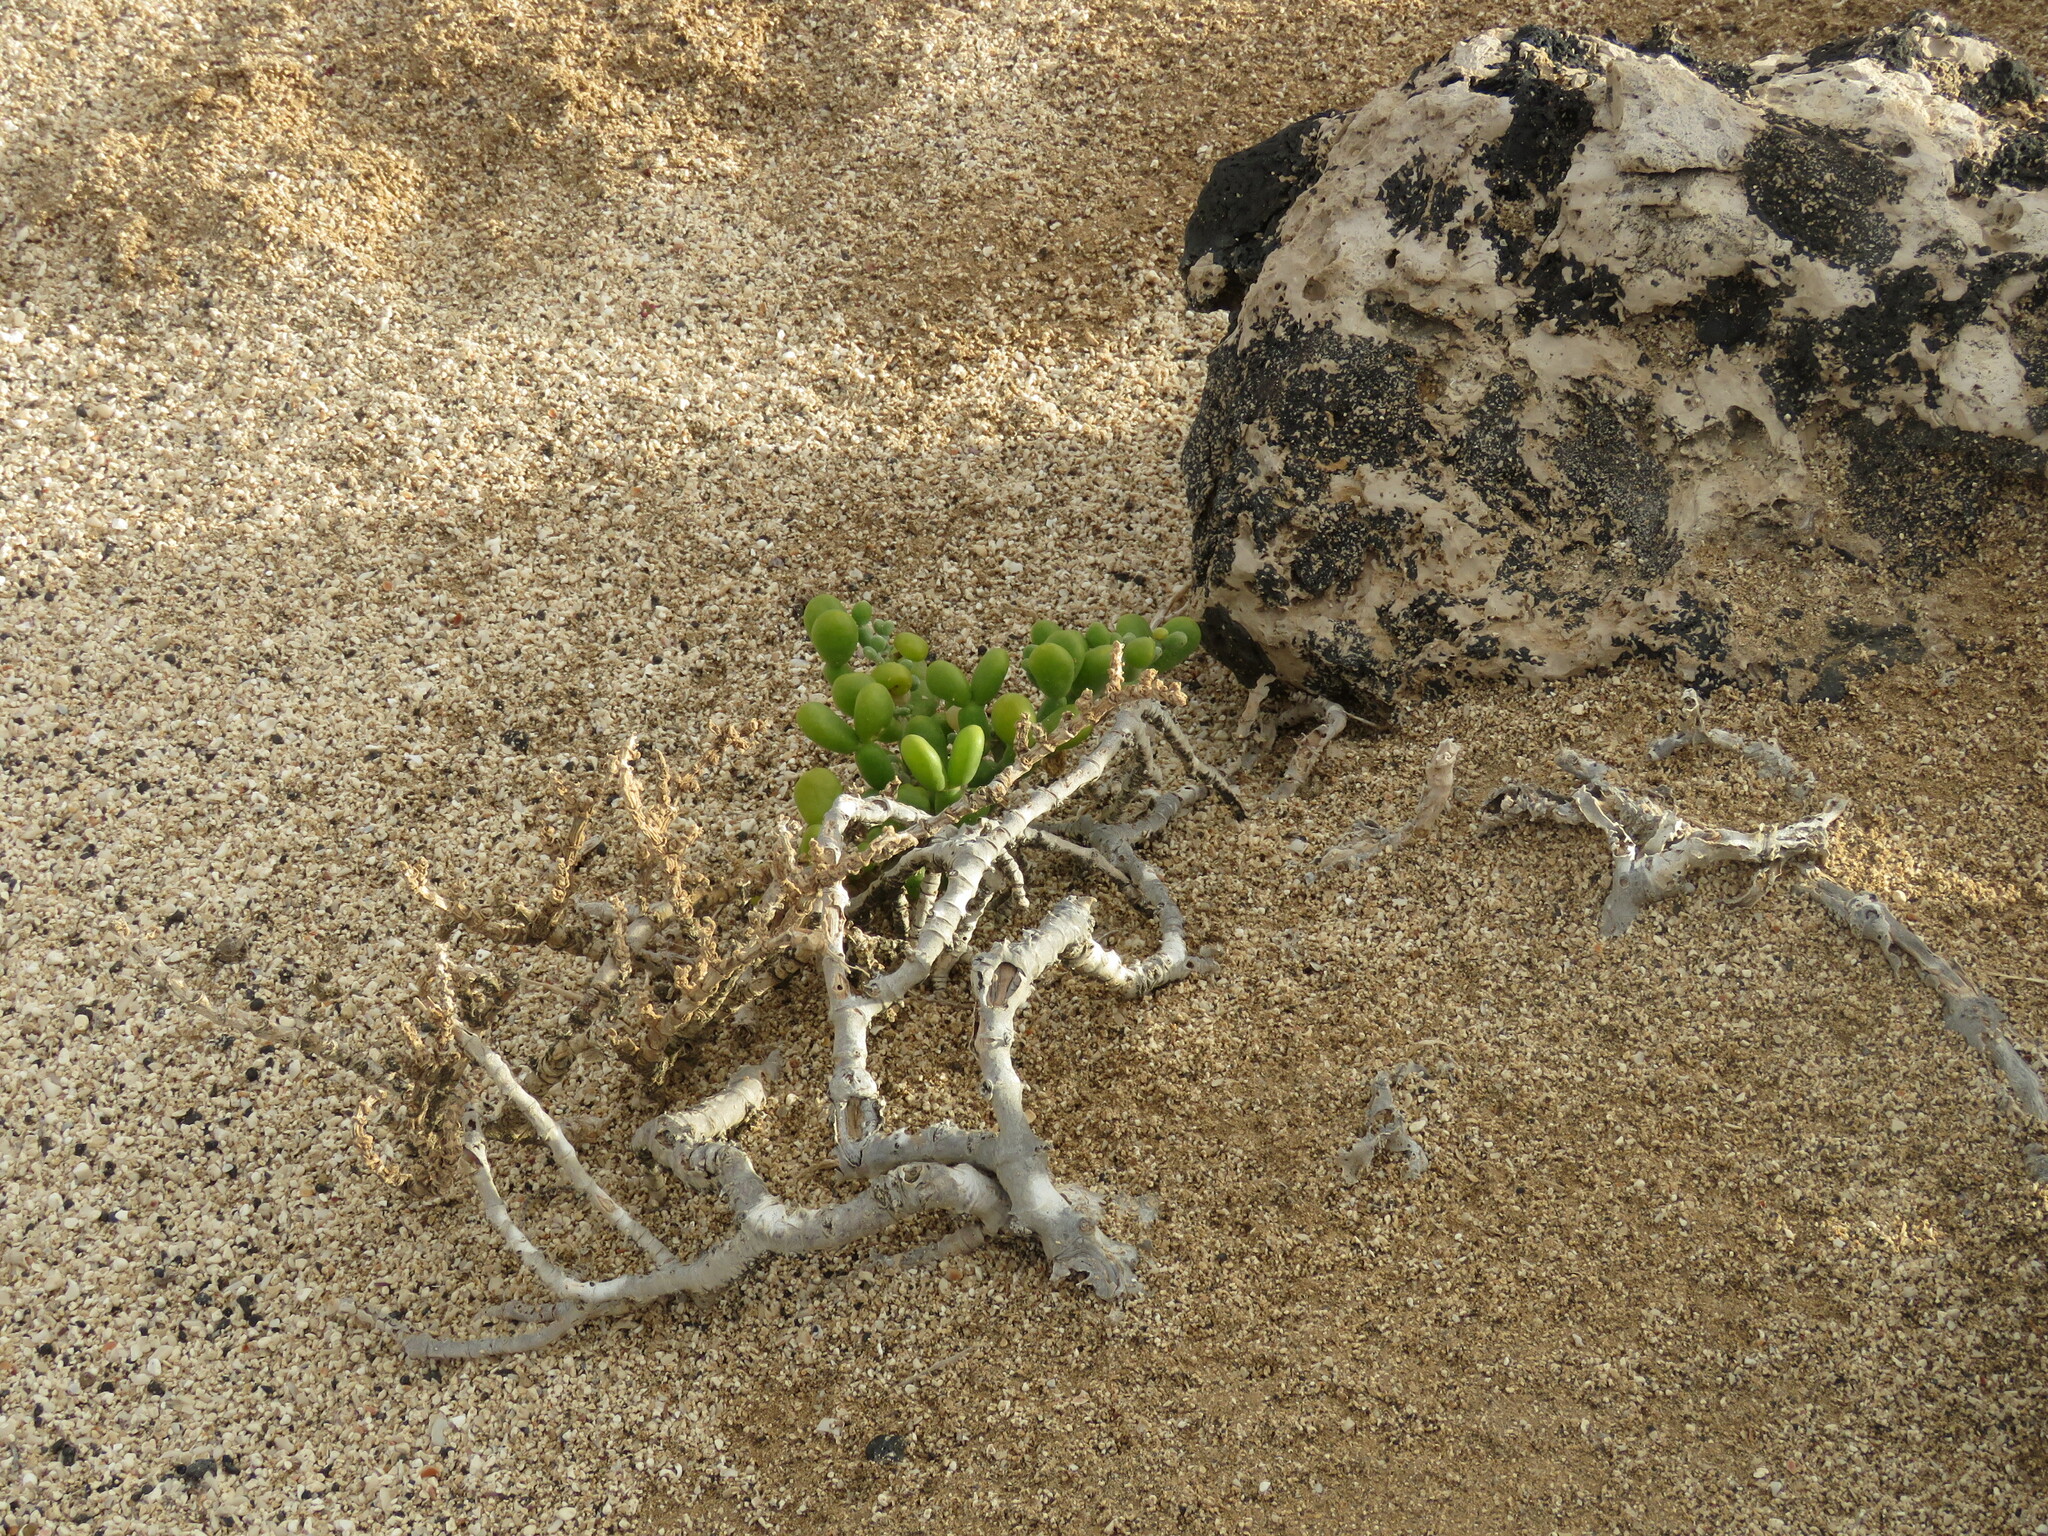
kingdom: Plantae
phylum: Tracheophyta
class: Magnoliopsida
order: Zygophyllales
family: Zygophyllaceae
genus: Tetraena
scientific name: Tetraena fontanesii
